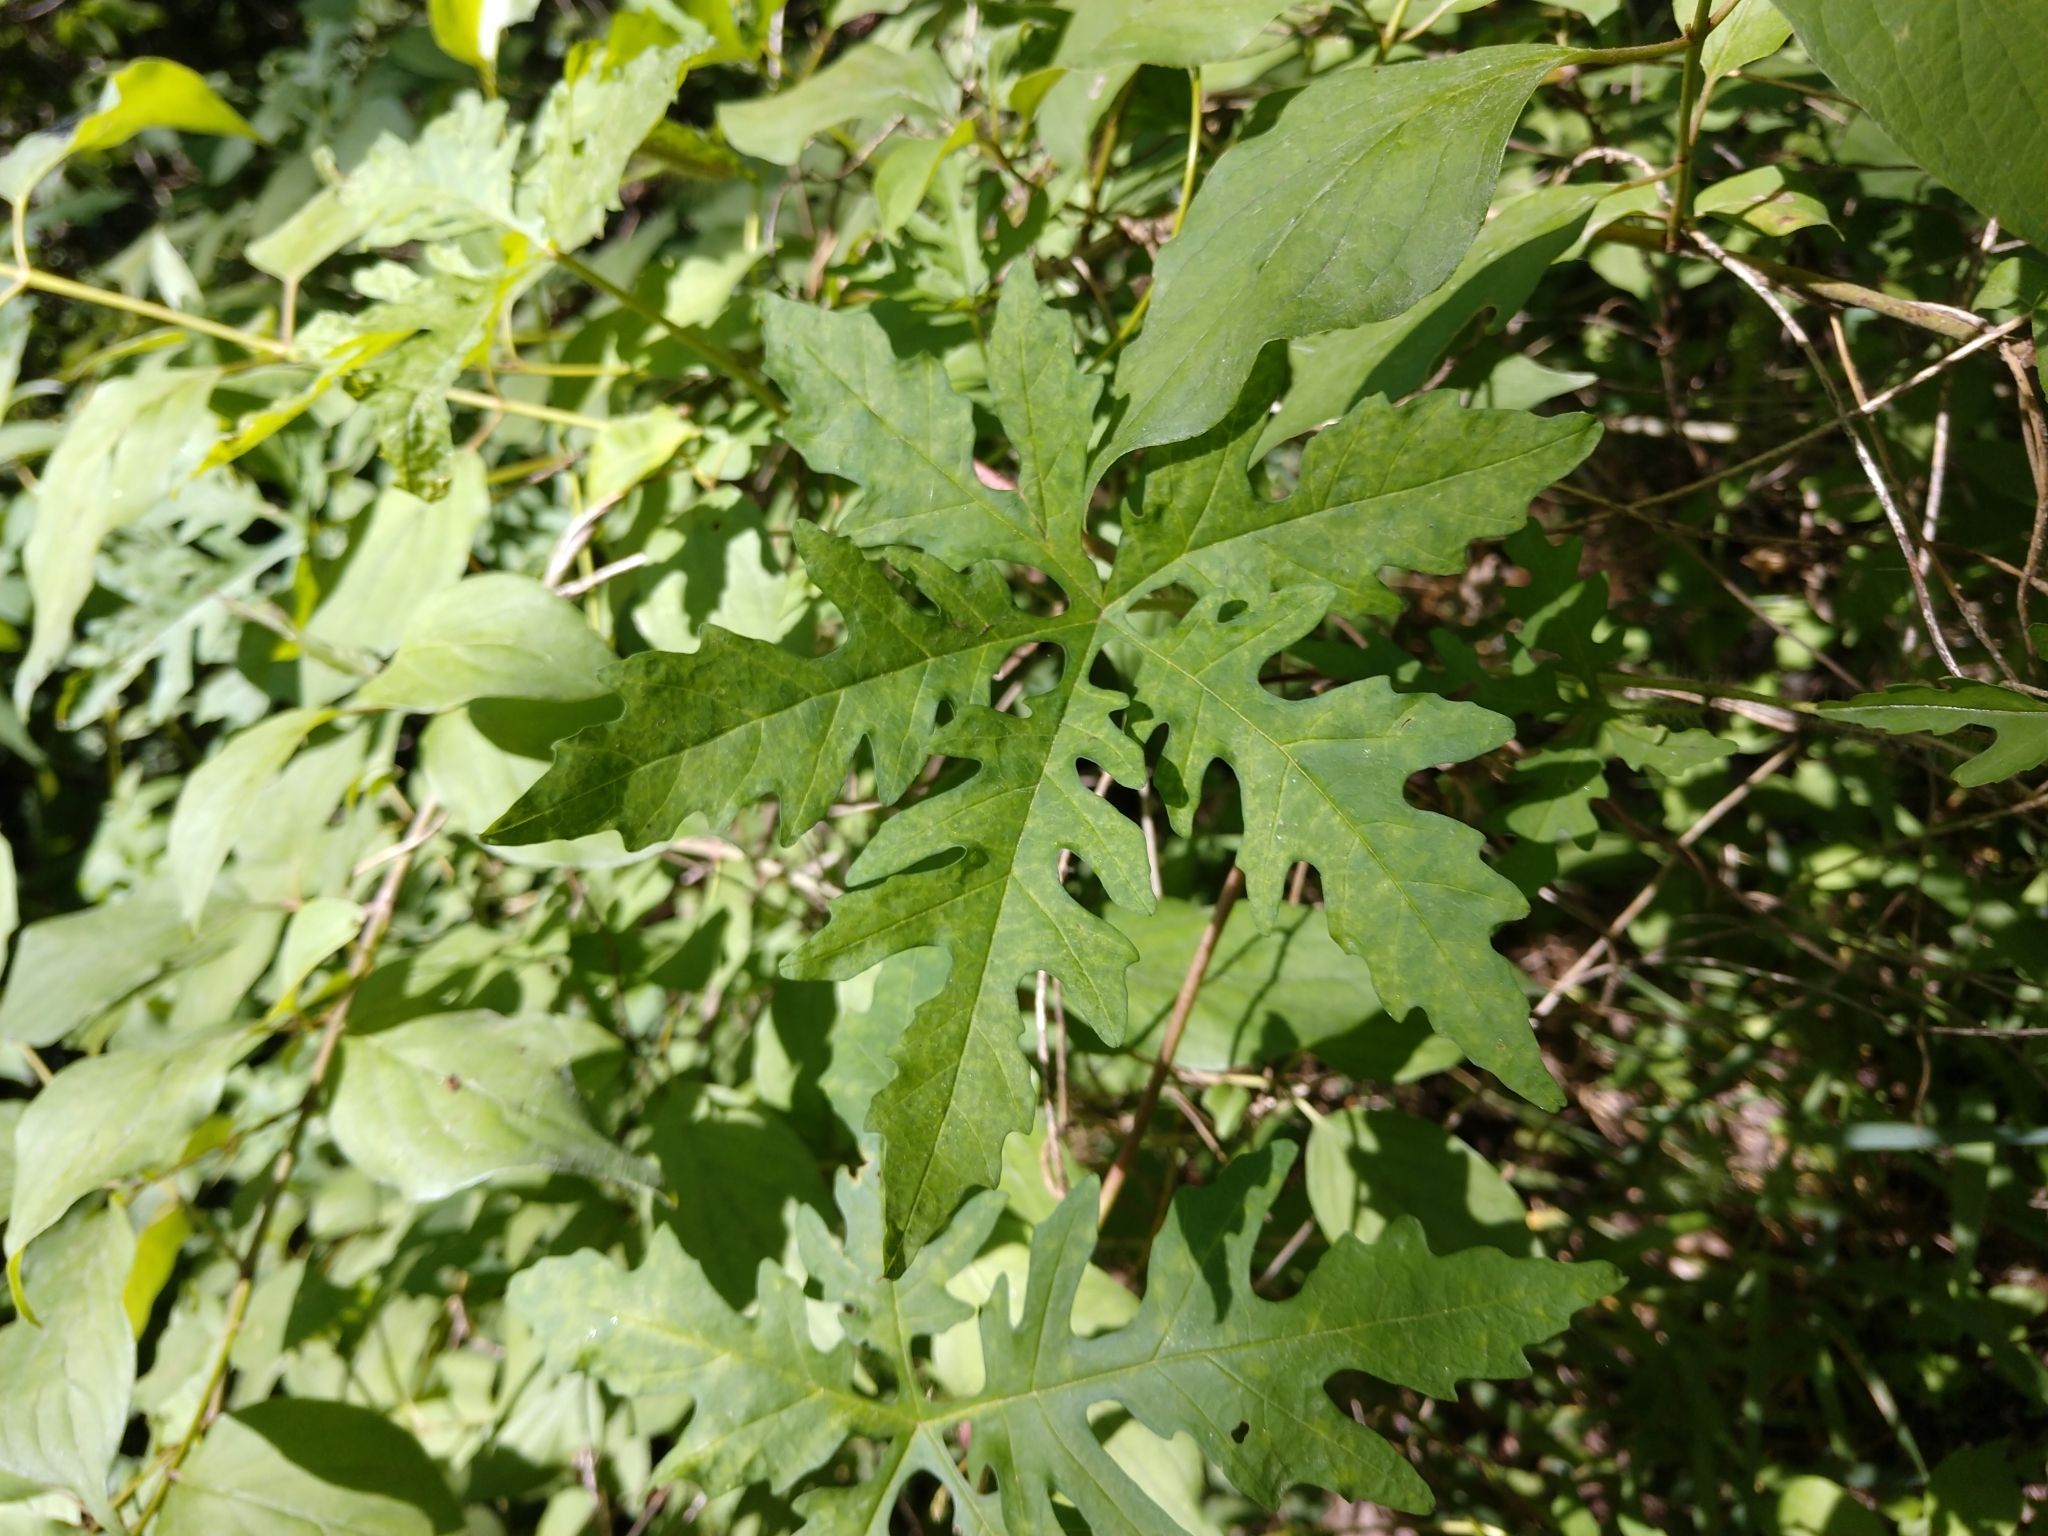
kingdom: Plantae
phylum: Tracheophyta
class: Magnoliopsida
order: Solanales
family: Convolvulaceae
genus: Distimake
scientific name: Distimake dissectus
